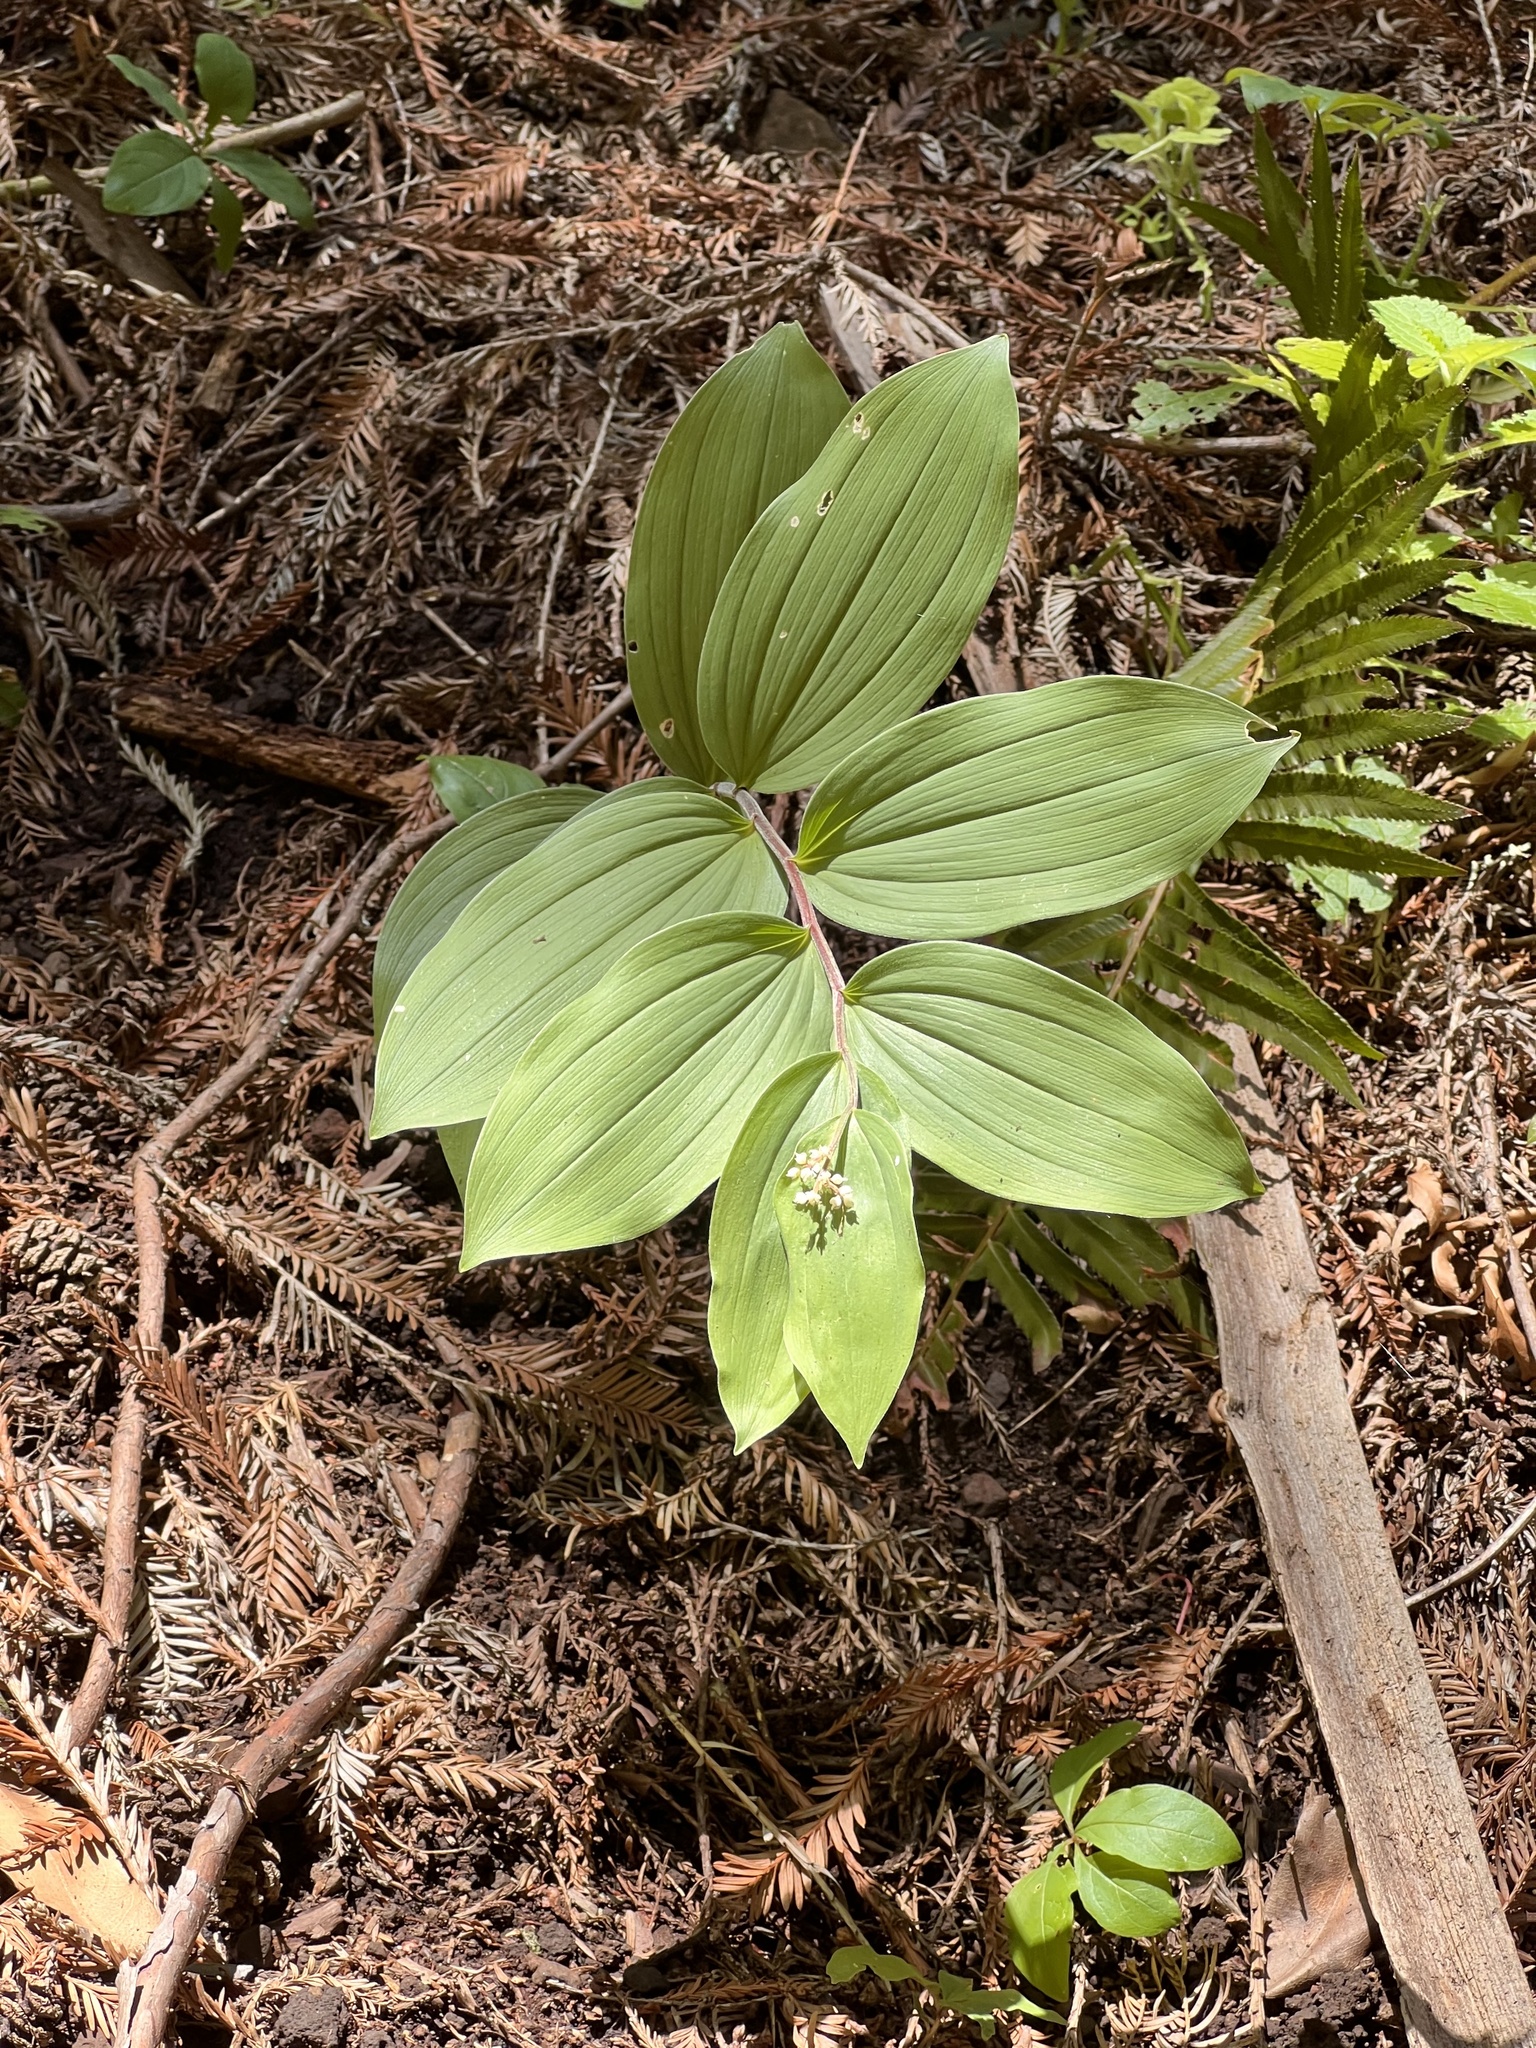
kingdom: Plantae
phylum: Tracheophyta
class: Liliopsida
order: Asparagales
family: Asparagaceae
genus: Maianthemum
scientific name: Maianthemum racemosum
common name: False spikenard
